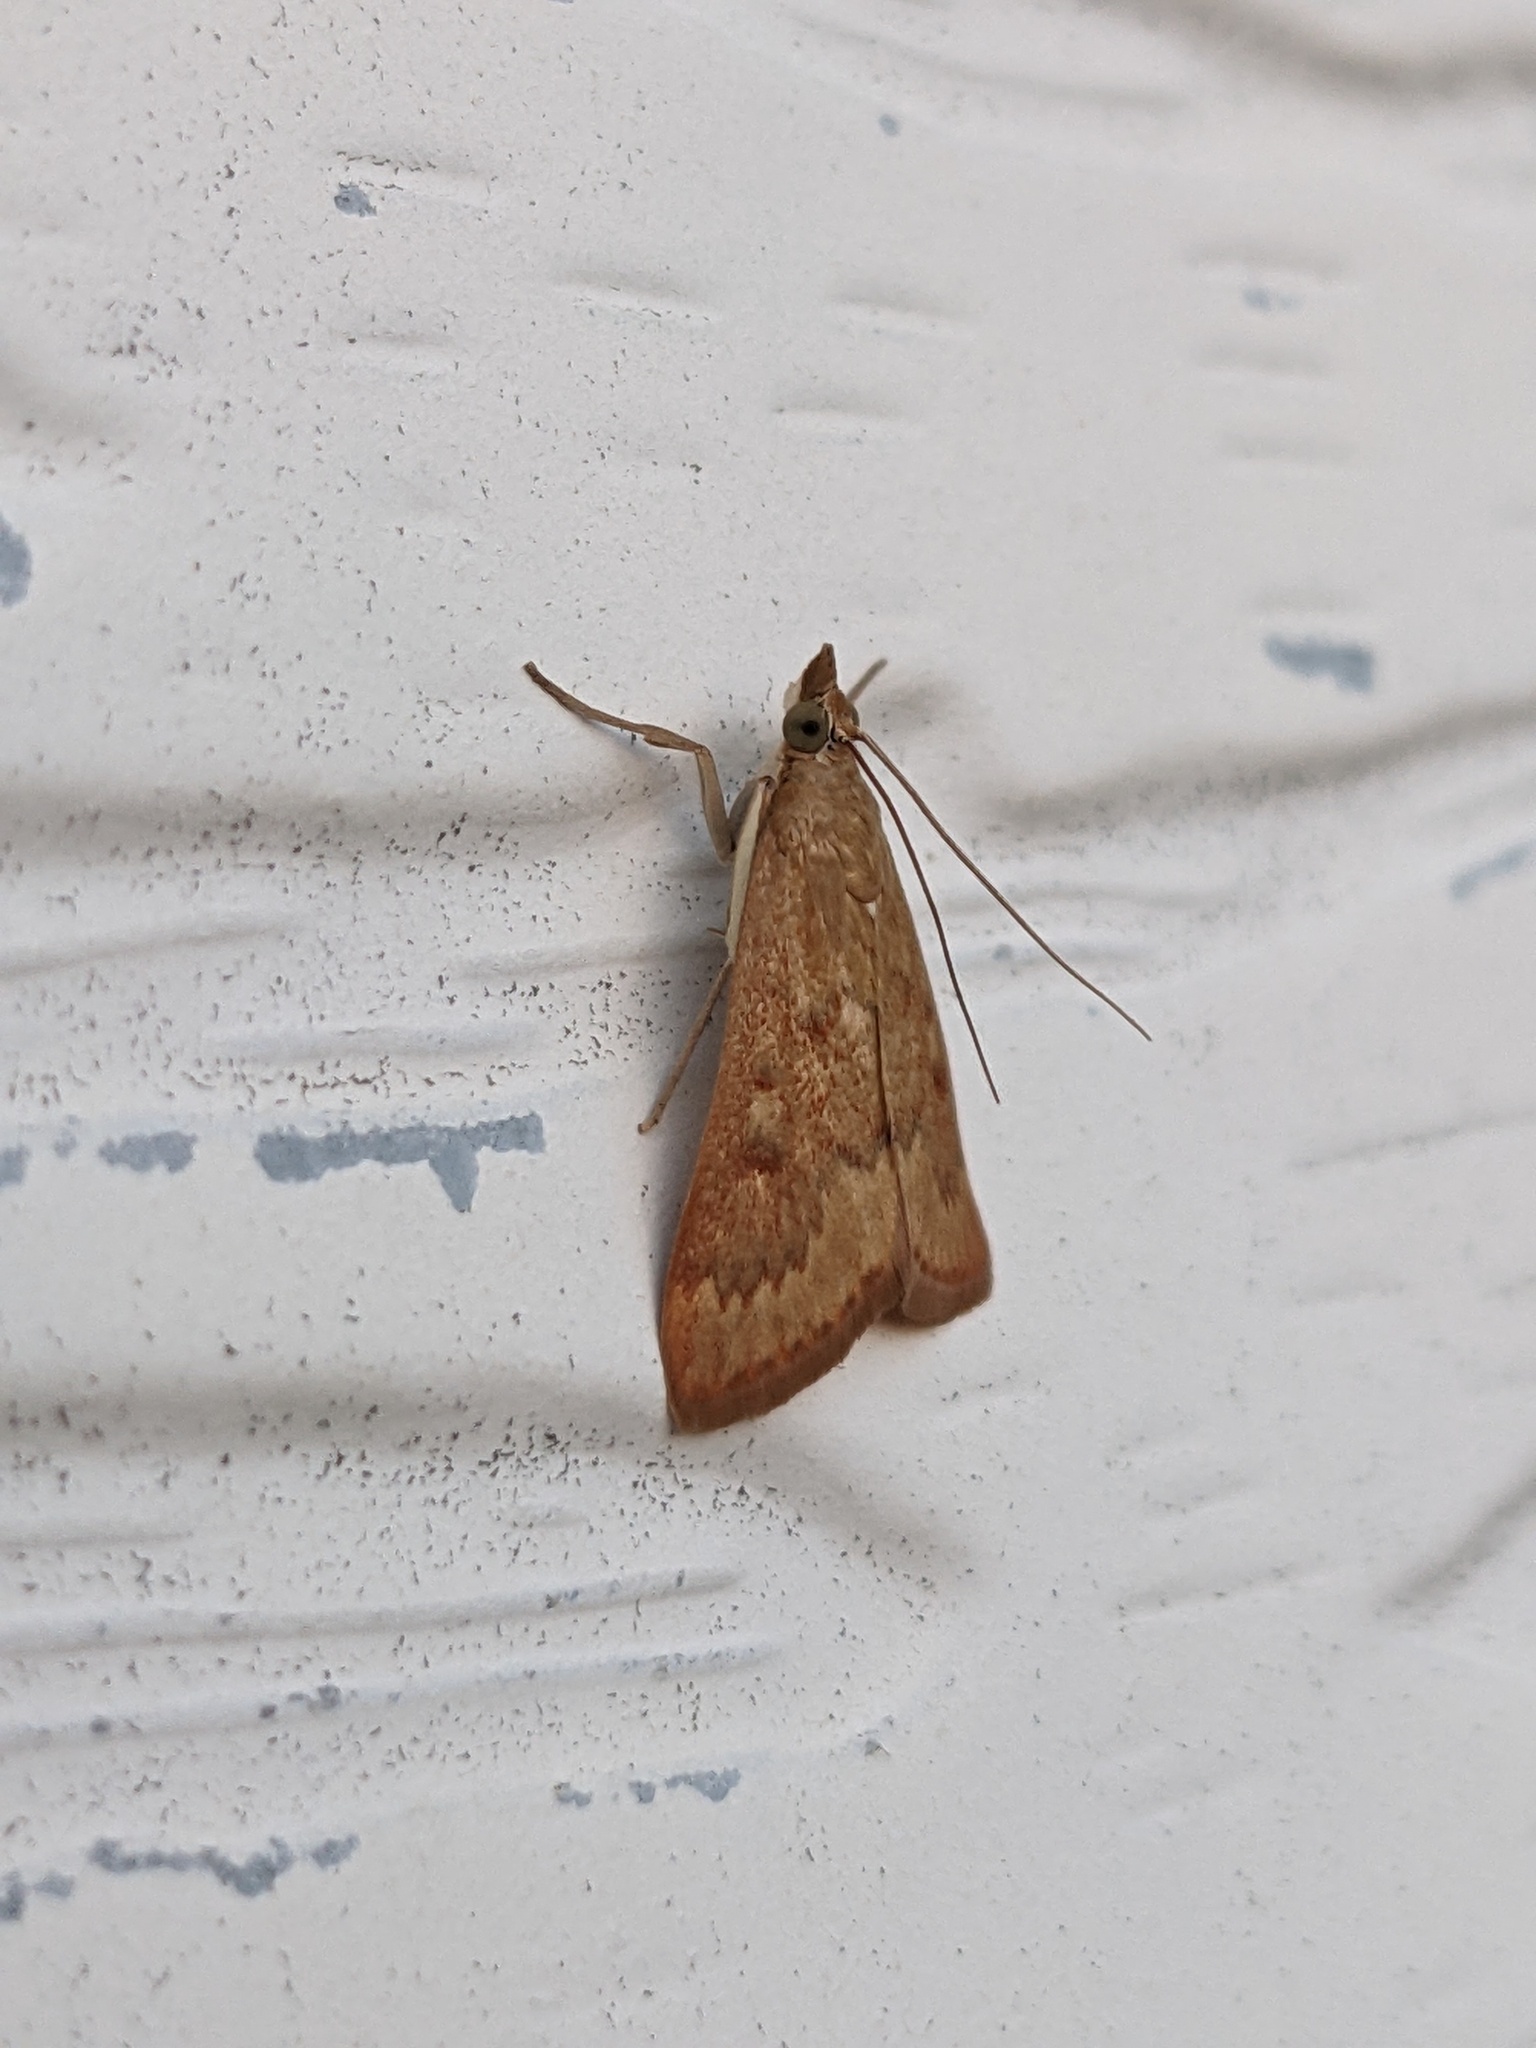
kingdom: Animalia
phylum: Arthropoda
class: Insecta
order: Lepidoptera
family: Crambidae
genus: Achyra
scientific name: Achyra rantalis
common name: Garden webworm
